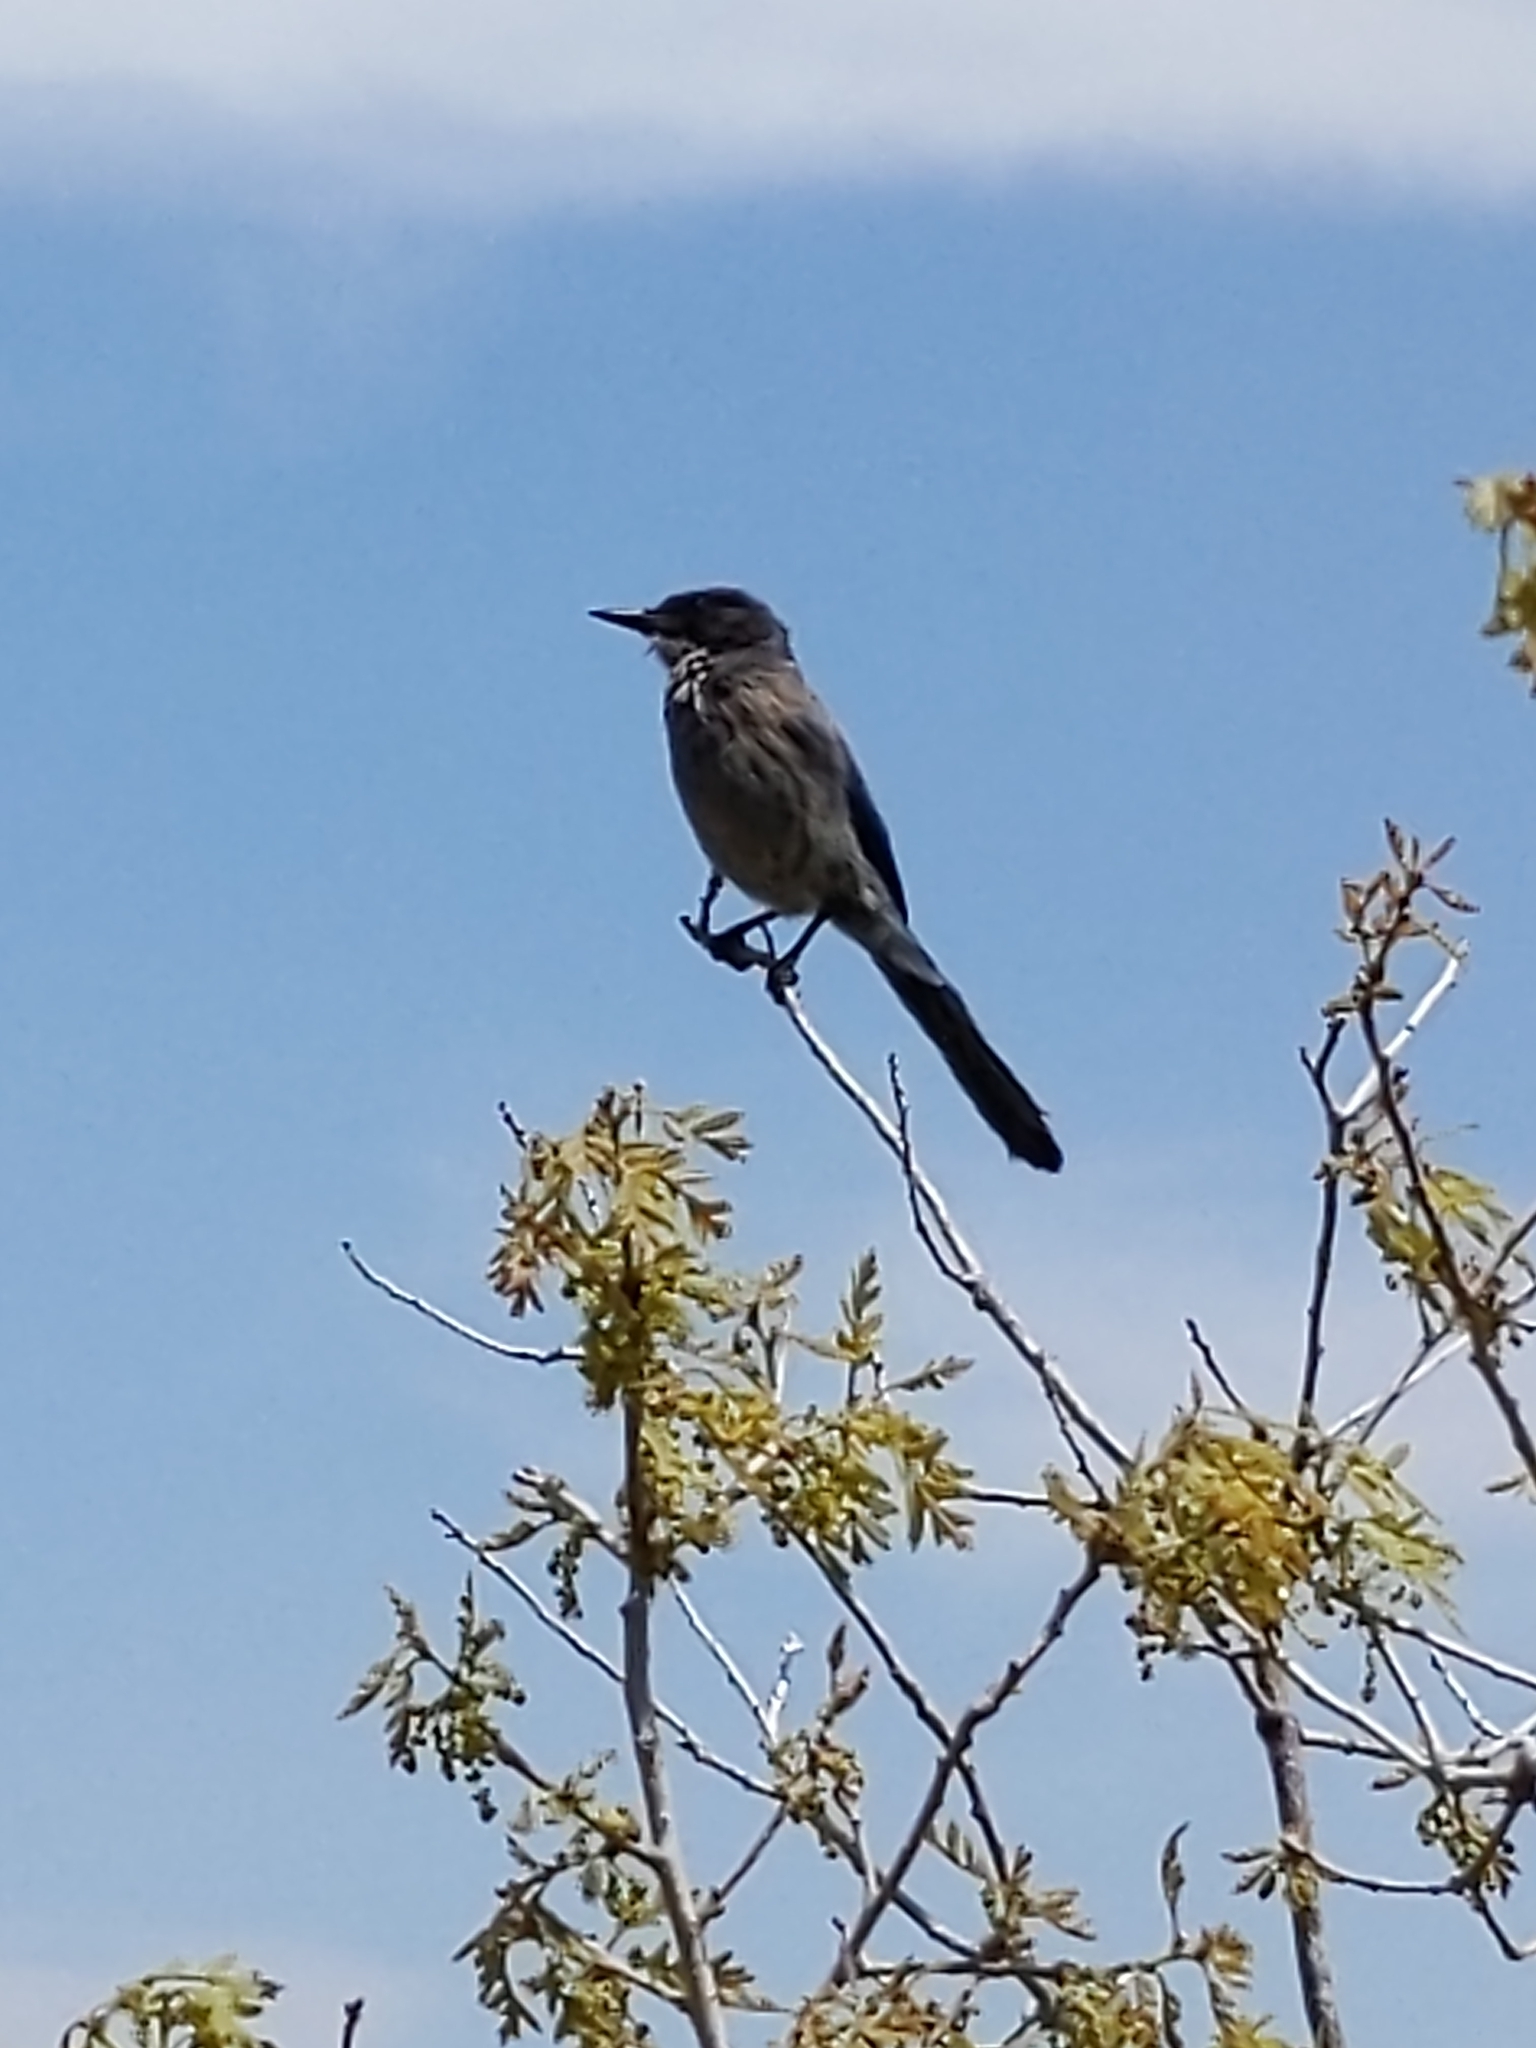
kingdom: Animalia
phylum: Chordata
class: Aves
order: Passeriformes
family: Corvidae
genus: Aphelocoma
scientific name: Aphelocoma woodhouseii
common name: Woodhouse's scrub-jay
